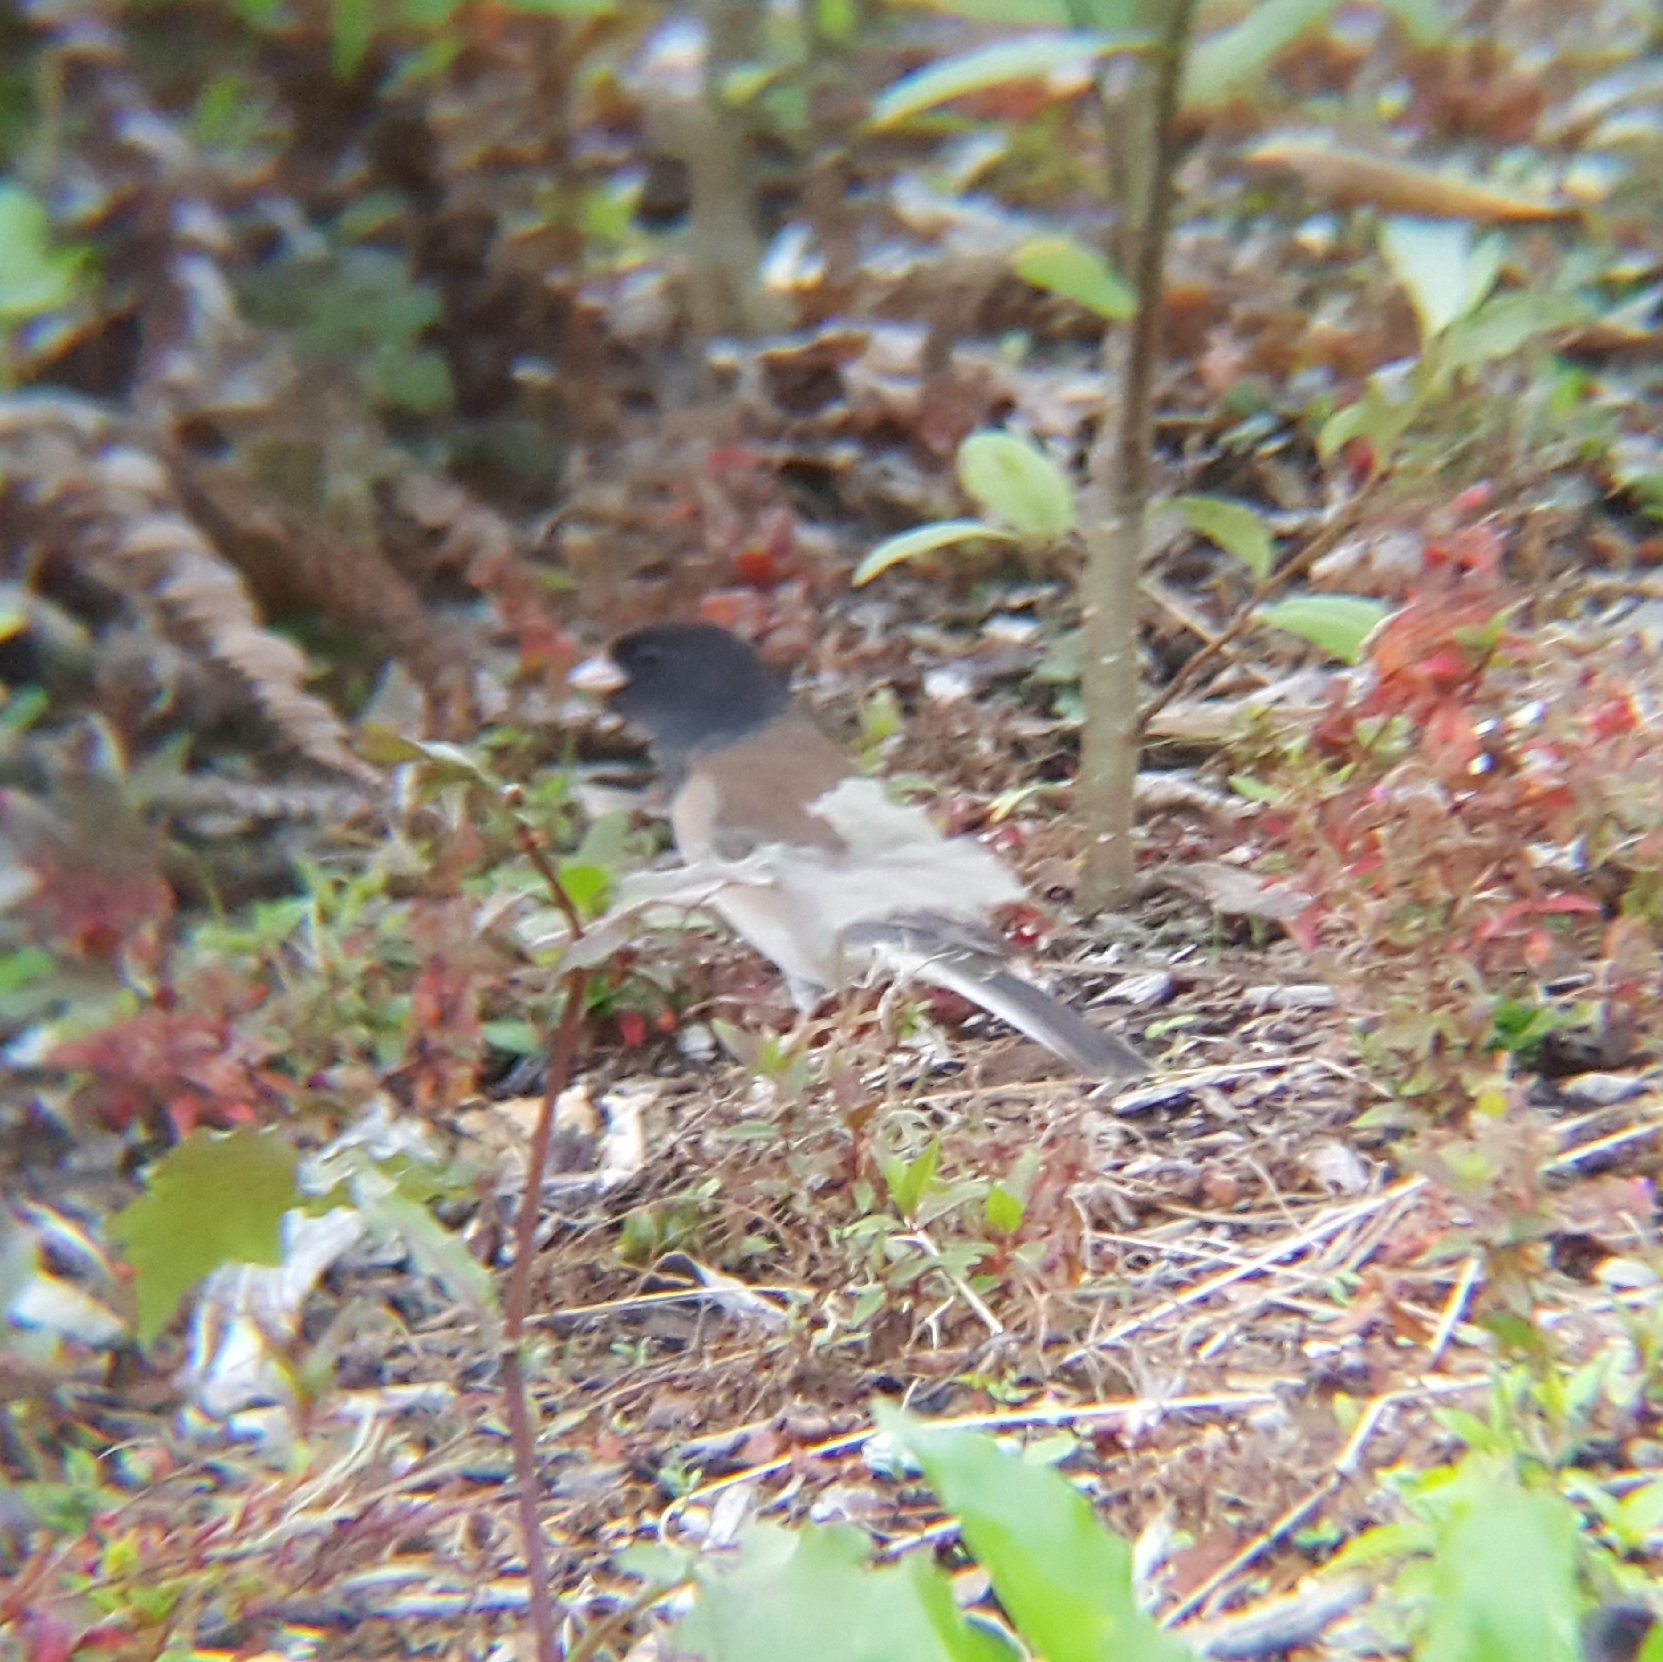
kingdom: Animalia
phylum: Chordata
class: Aves
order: Passeriformes
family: Passerellidae
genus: Junco
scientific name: Junco hyemalis
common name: Dark-eyed junco
